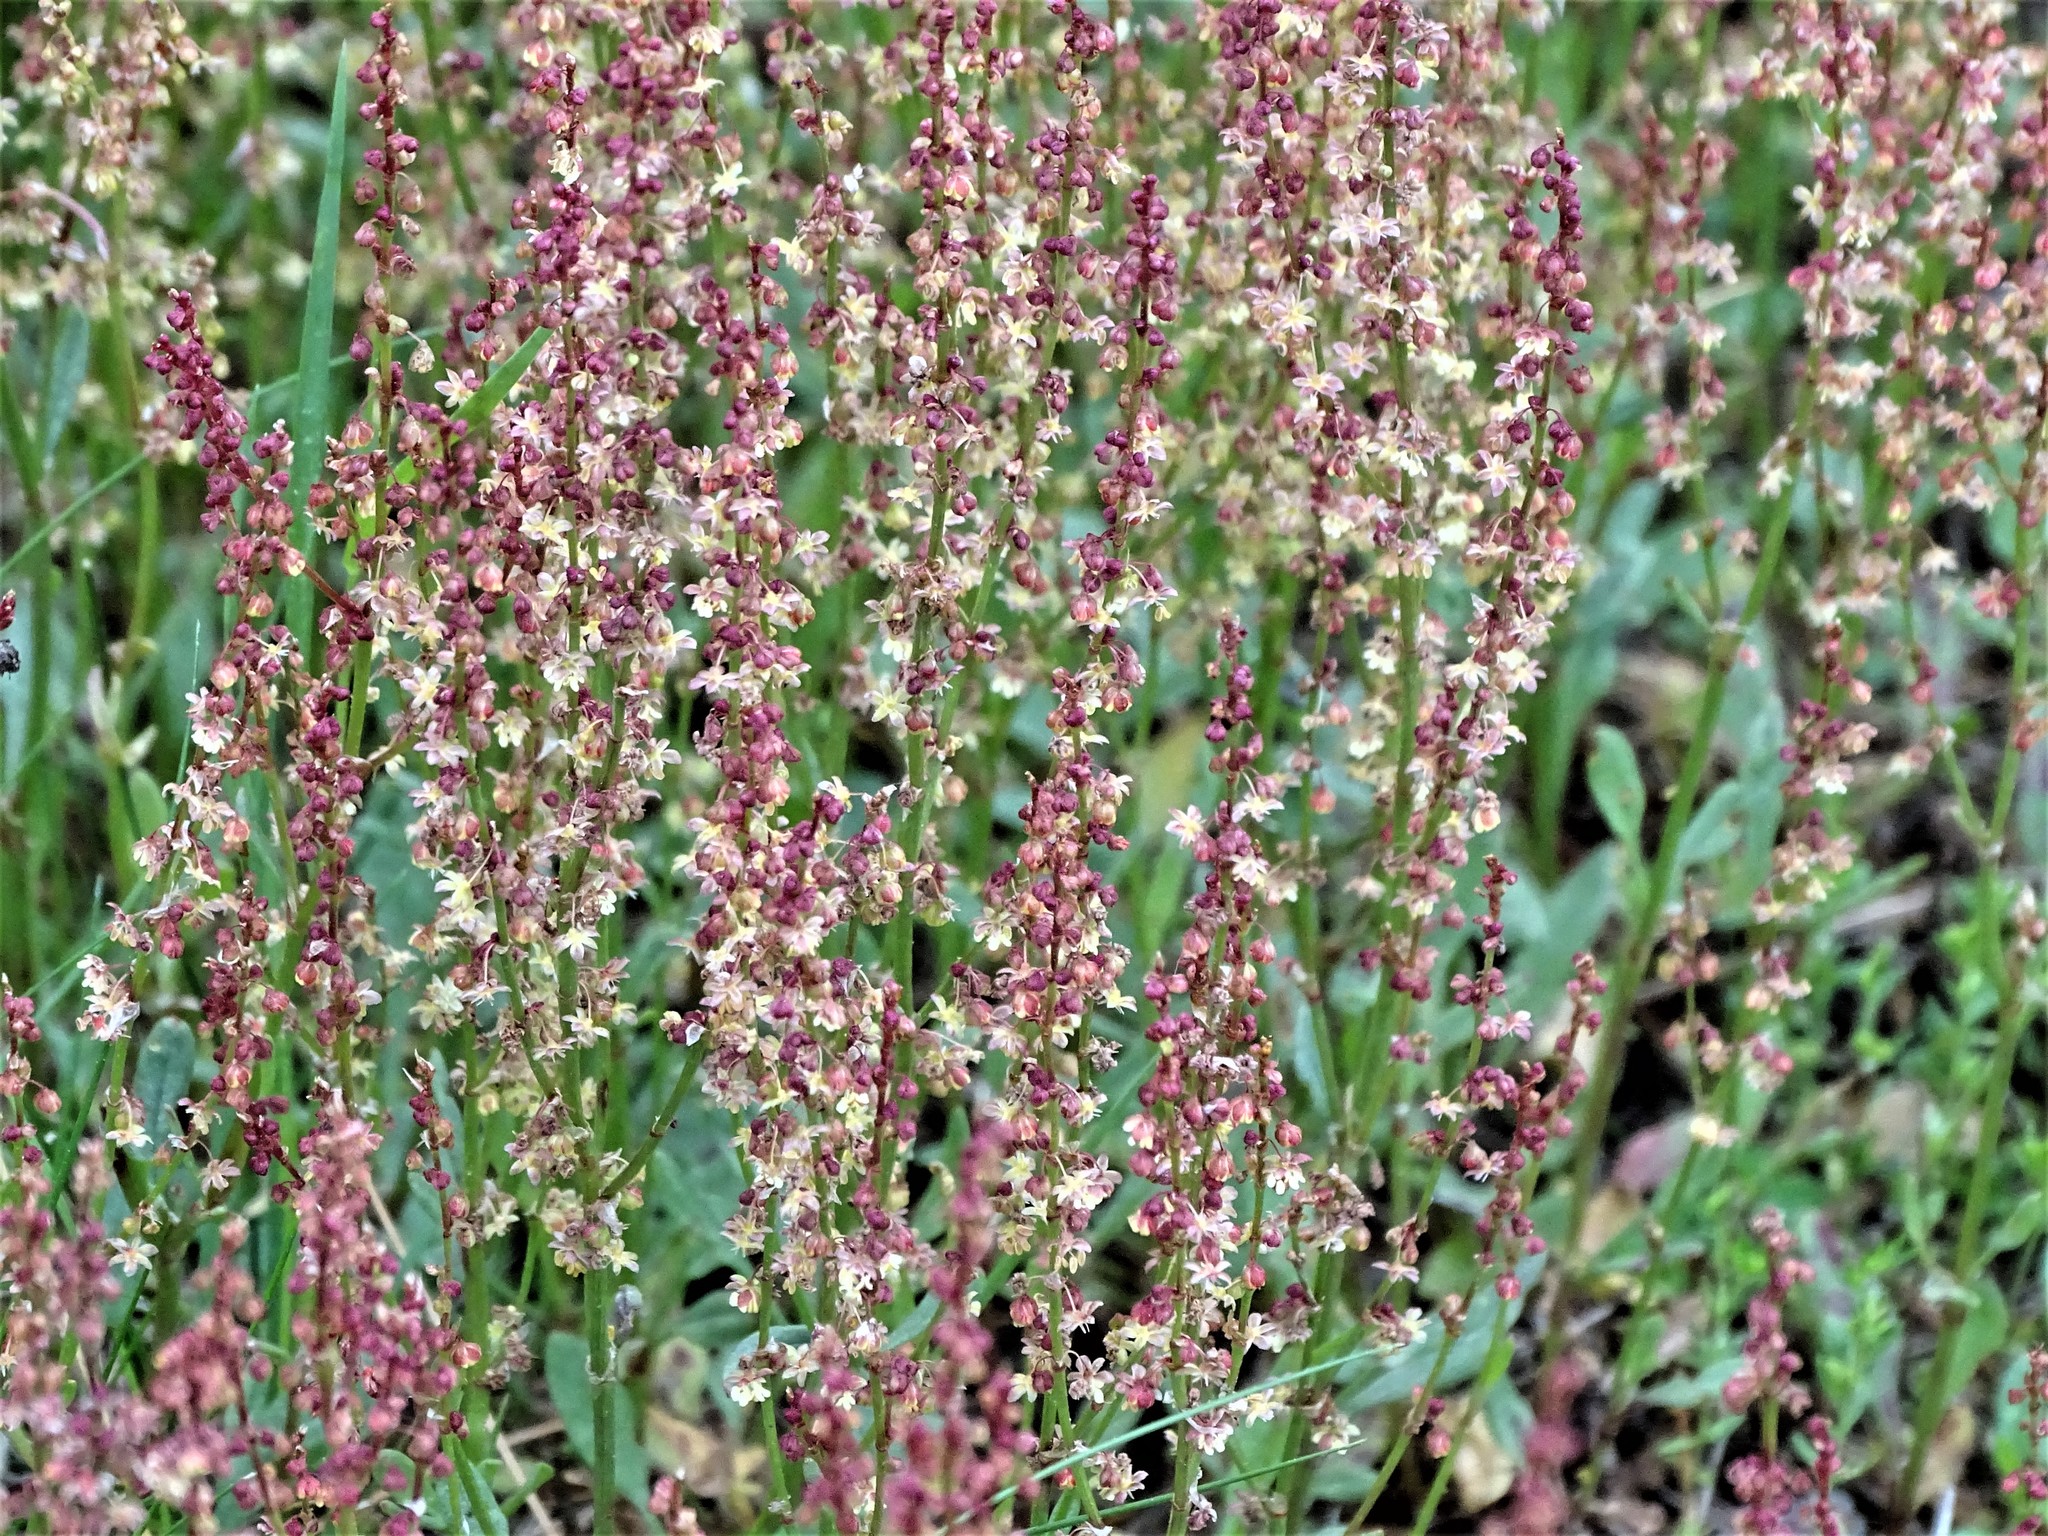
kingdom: Plantae
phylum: Tracheophyta
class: Magnoliopsida
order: Caryophyllales
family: Polygonaceae
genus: Rumex
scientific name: Rumex acetosella
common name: Common sheep sorrel
